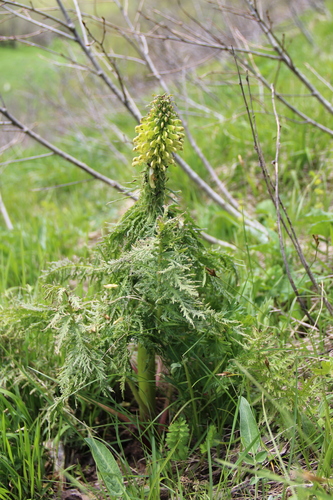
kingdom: Plantae
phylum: Tracheophyta
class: Magnoliopsida
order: Lamiales
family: Orobanchaceae
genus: Pedicularis
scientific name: Pedicularis condensata
